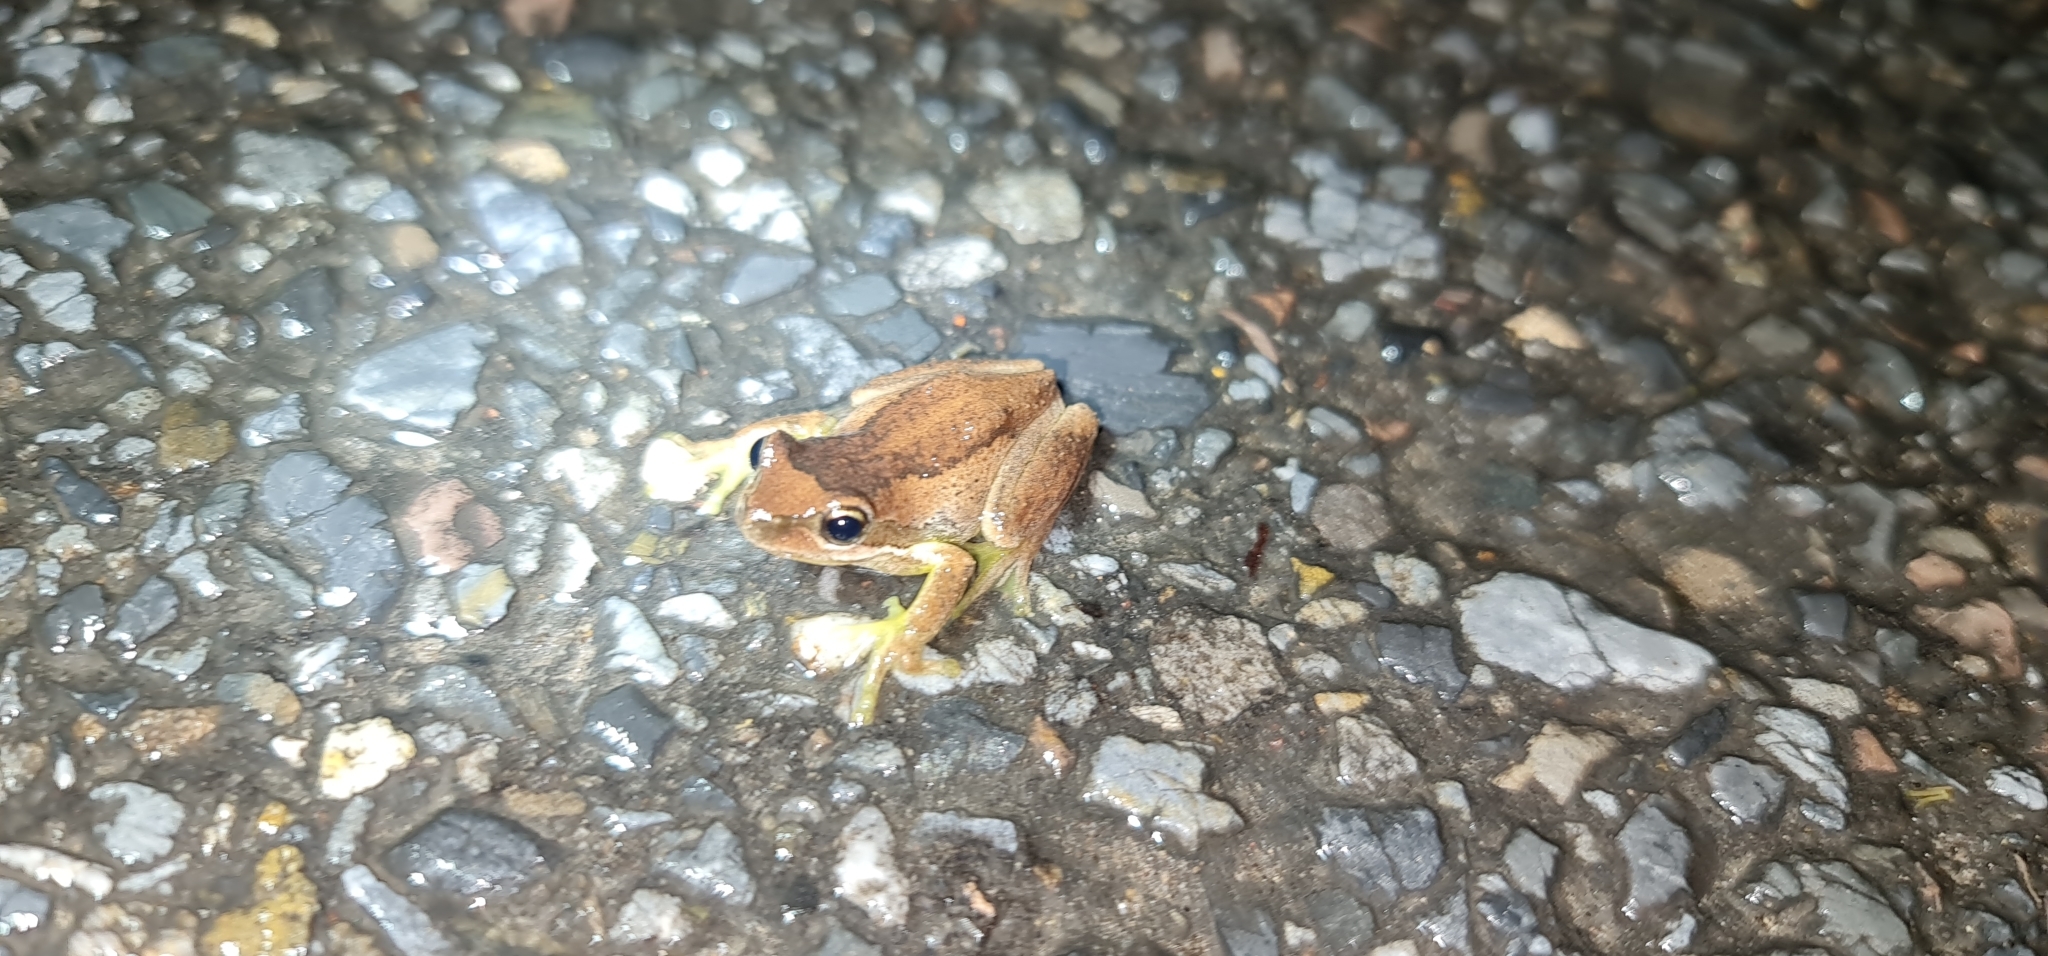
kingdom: Animalia
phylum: Chordata
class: Amphibia
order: Anura
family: Pelodryadidae
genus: Litoria
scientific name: Litoria
